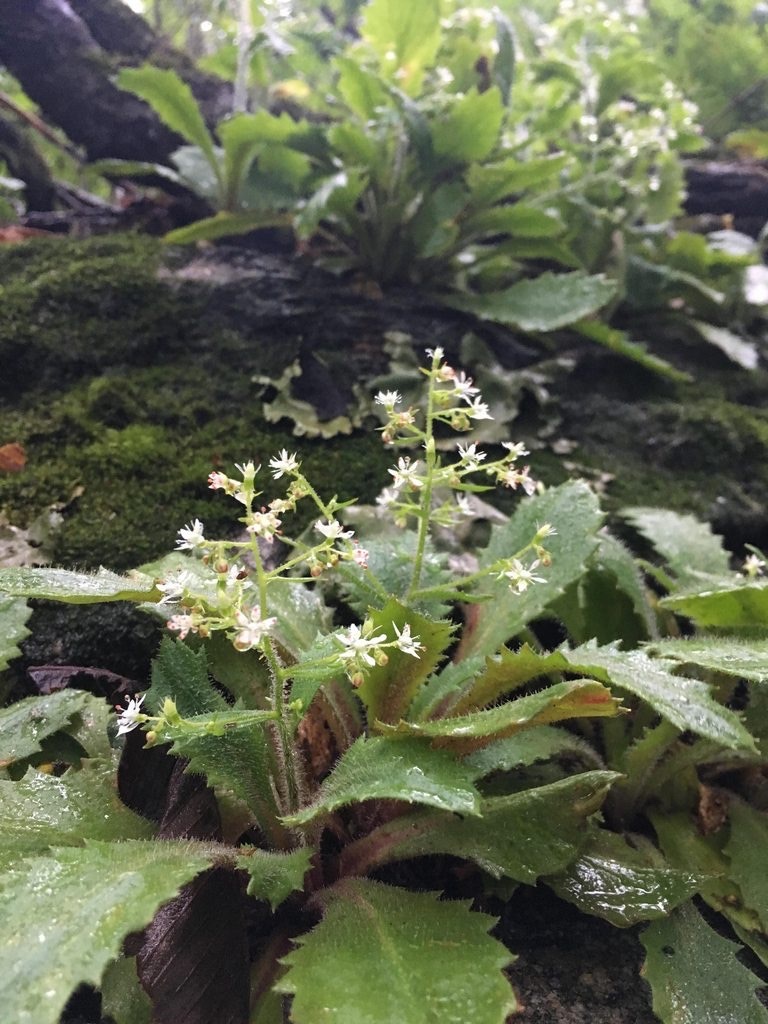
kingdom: Plantae
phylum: Tracheophyta
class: Magnoliopsida
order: Saxifragales
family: Saxifragaceae
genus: Micranthes
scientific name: Micranthes petiolaris
